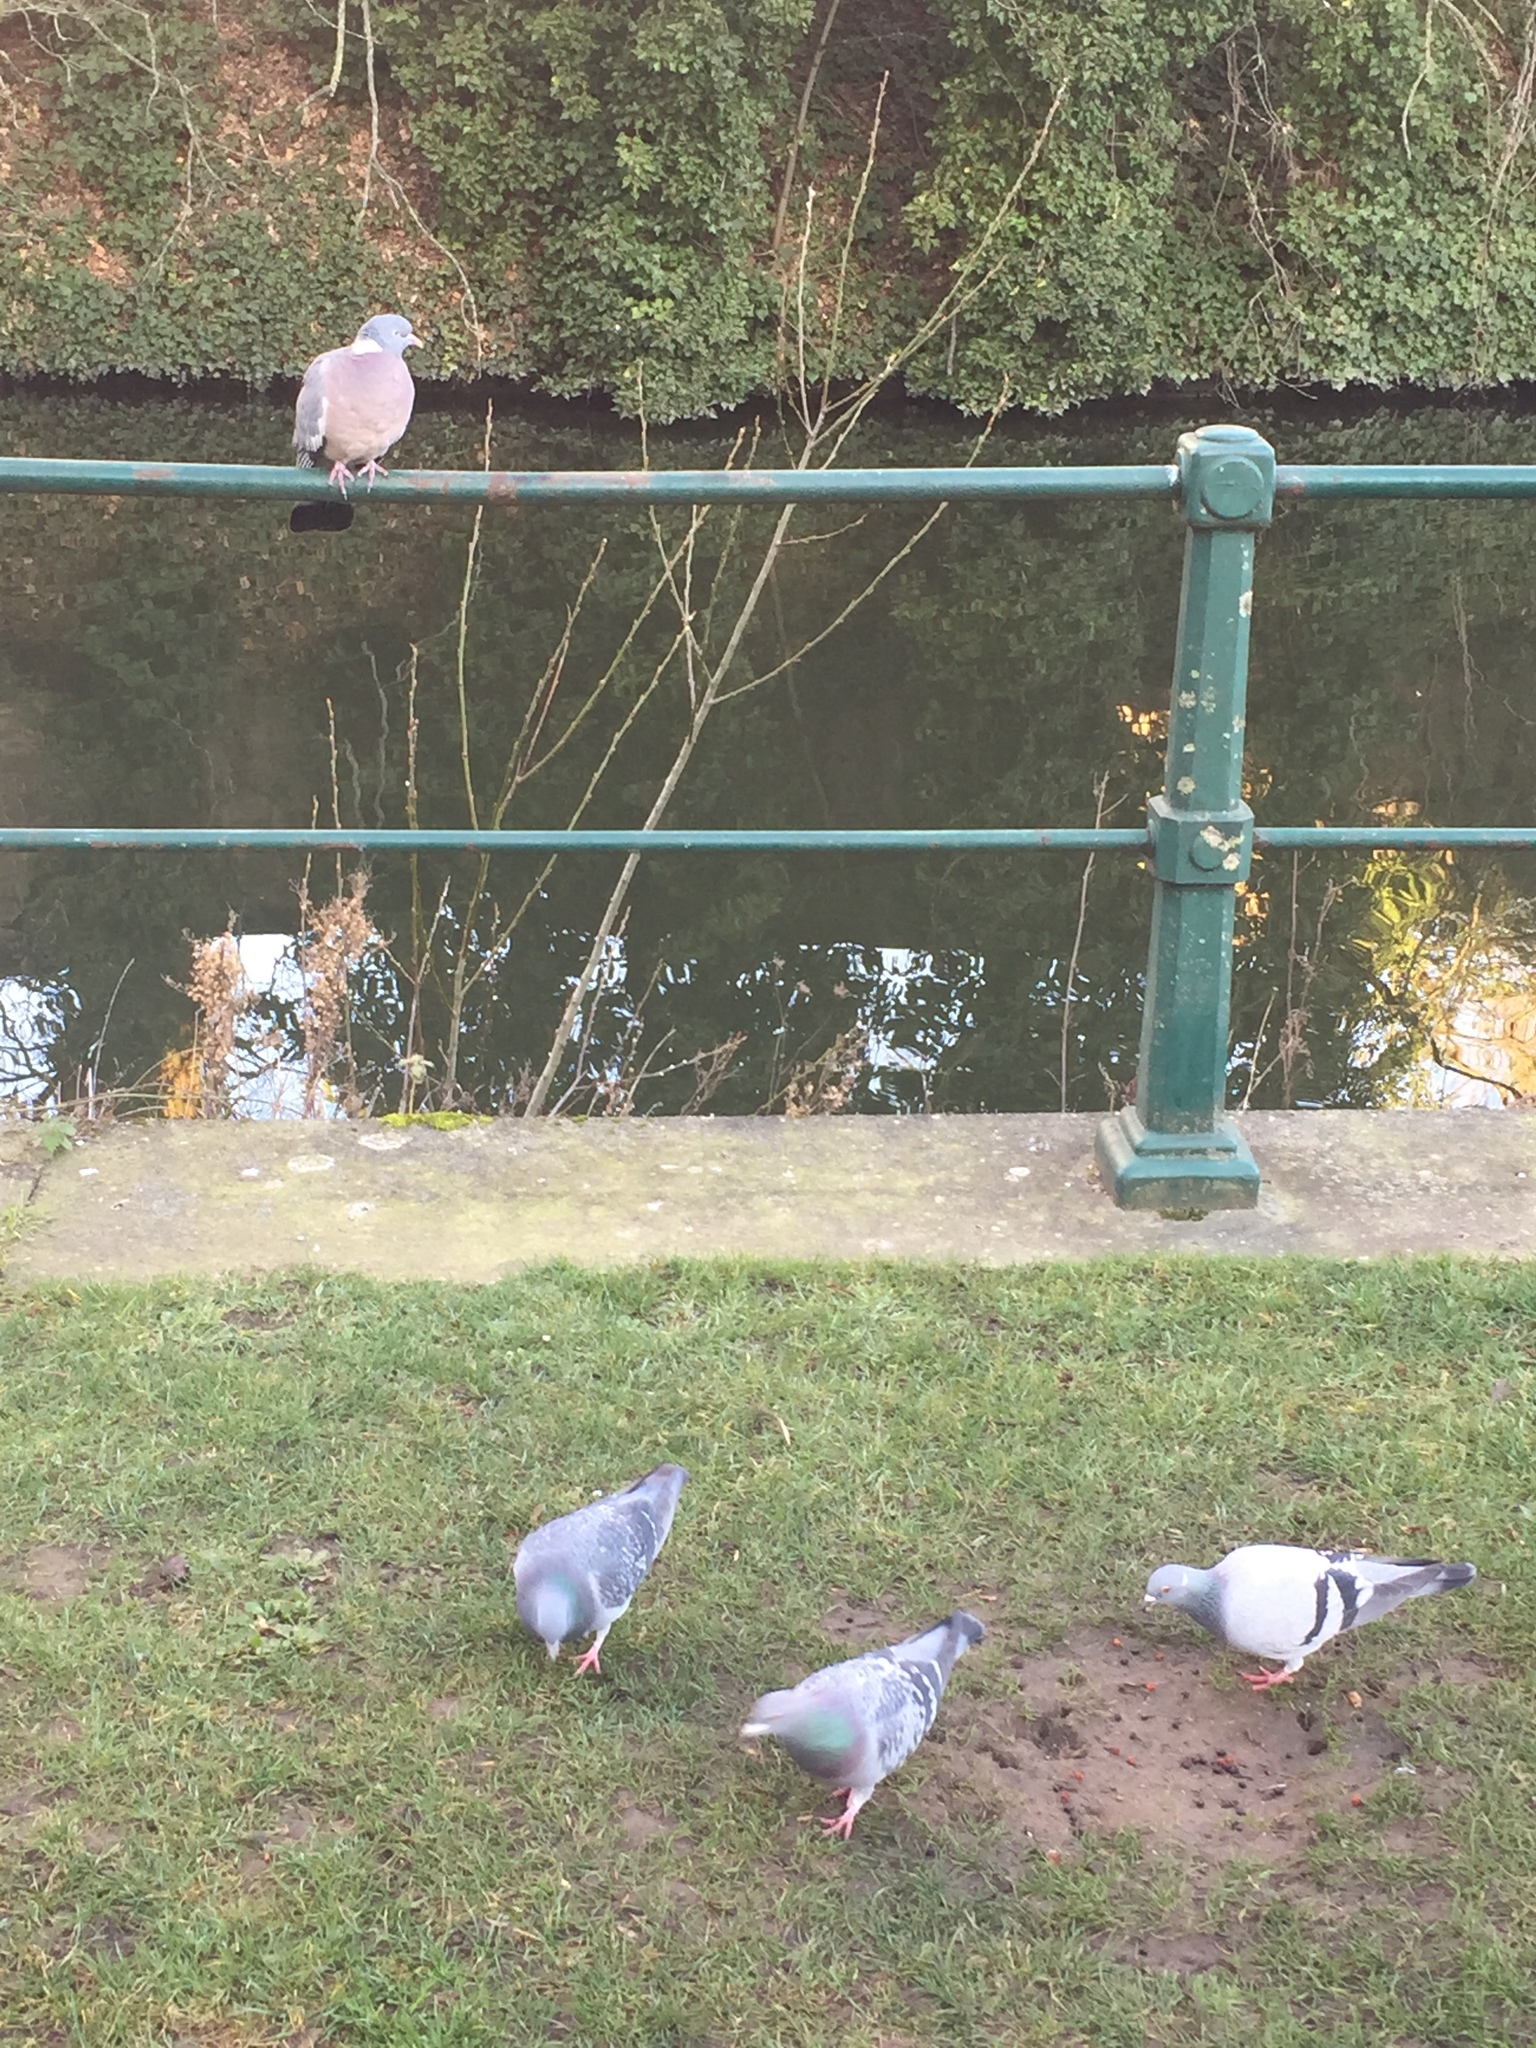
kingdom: Animalia
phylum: Chordata
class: Aves
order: Columbiformes
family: Columbidae
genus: Columba
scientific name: Columba livia
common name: Rock pigeon
